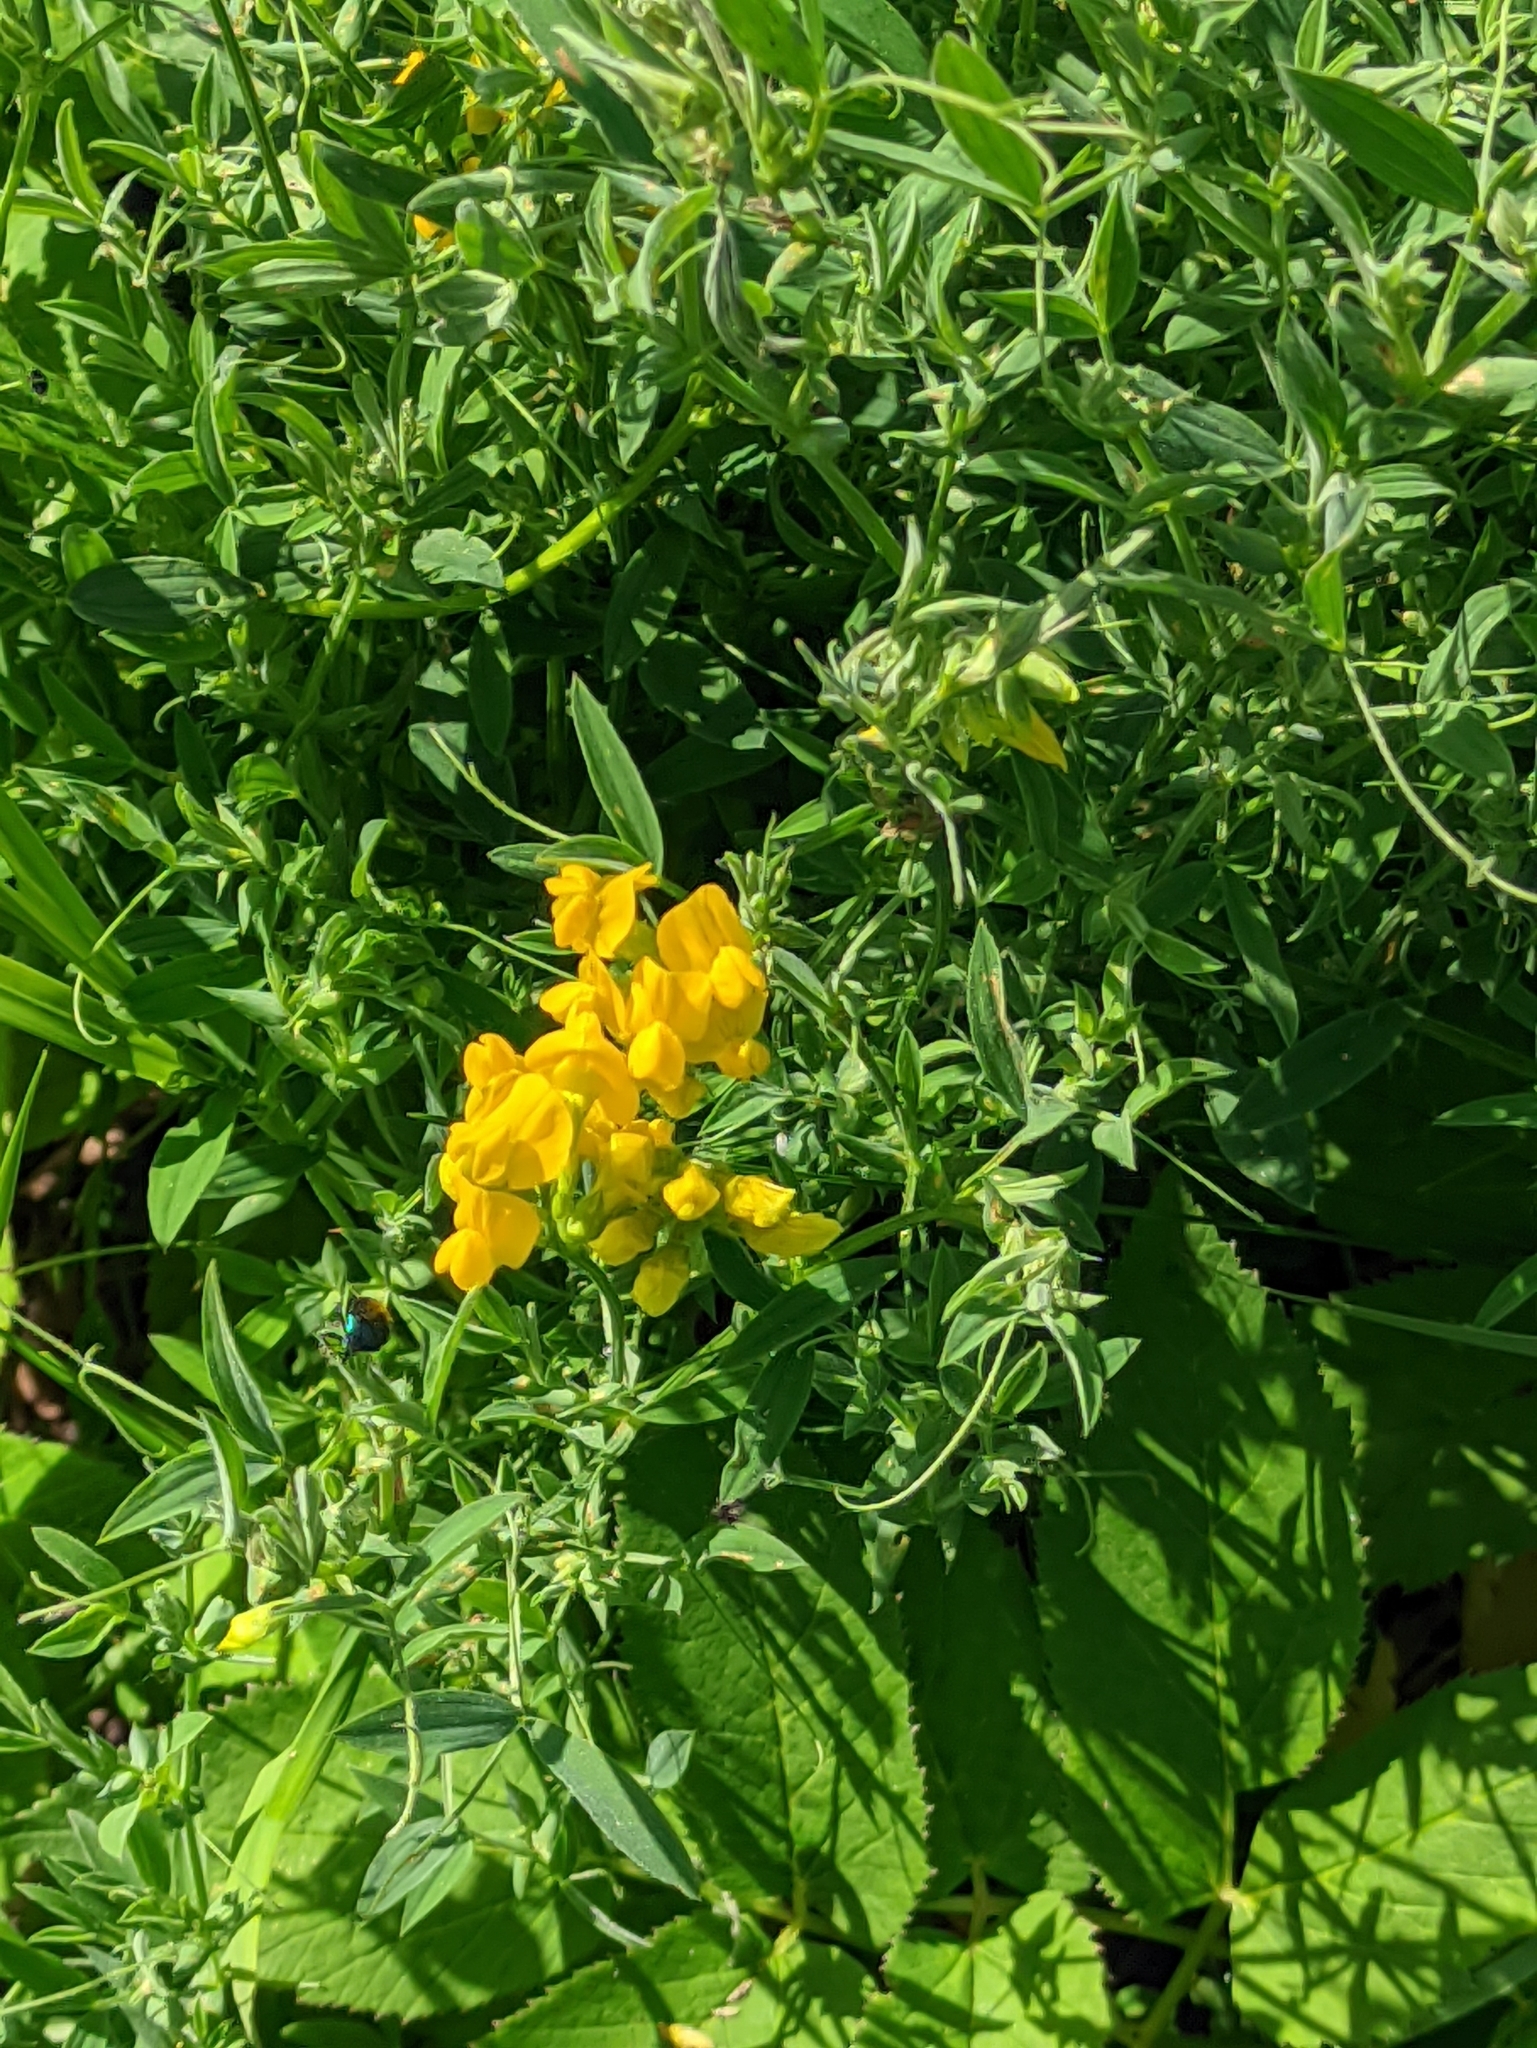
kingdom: Plantae
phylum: Tracheophyta
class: Magnoliopsida
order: Fabales
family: Fabaceae
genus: Lathyrus
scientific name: Lathyrus pratensis
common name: Meadow vetchling
